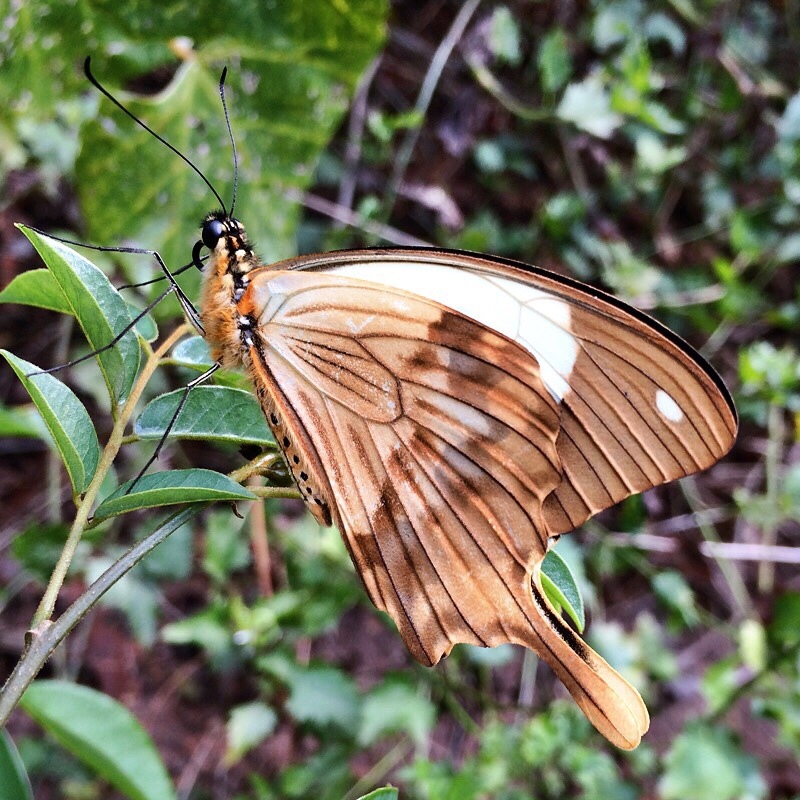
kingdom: Animalia
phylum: Arthropoda
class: Insecta
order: Lepidoptera
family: Papilionidae
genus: Papilio
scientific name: Papilio dardanus
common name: Flying handkerchief
